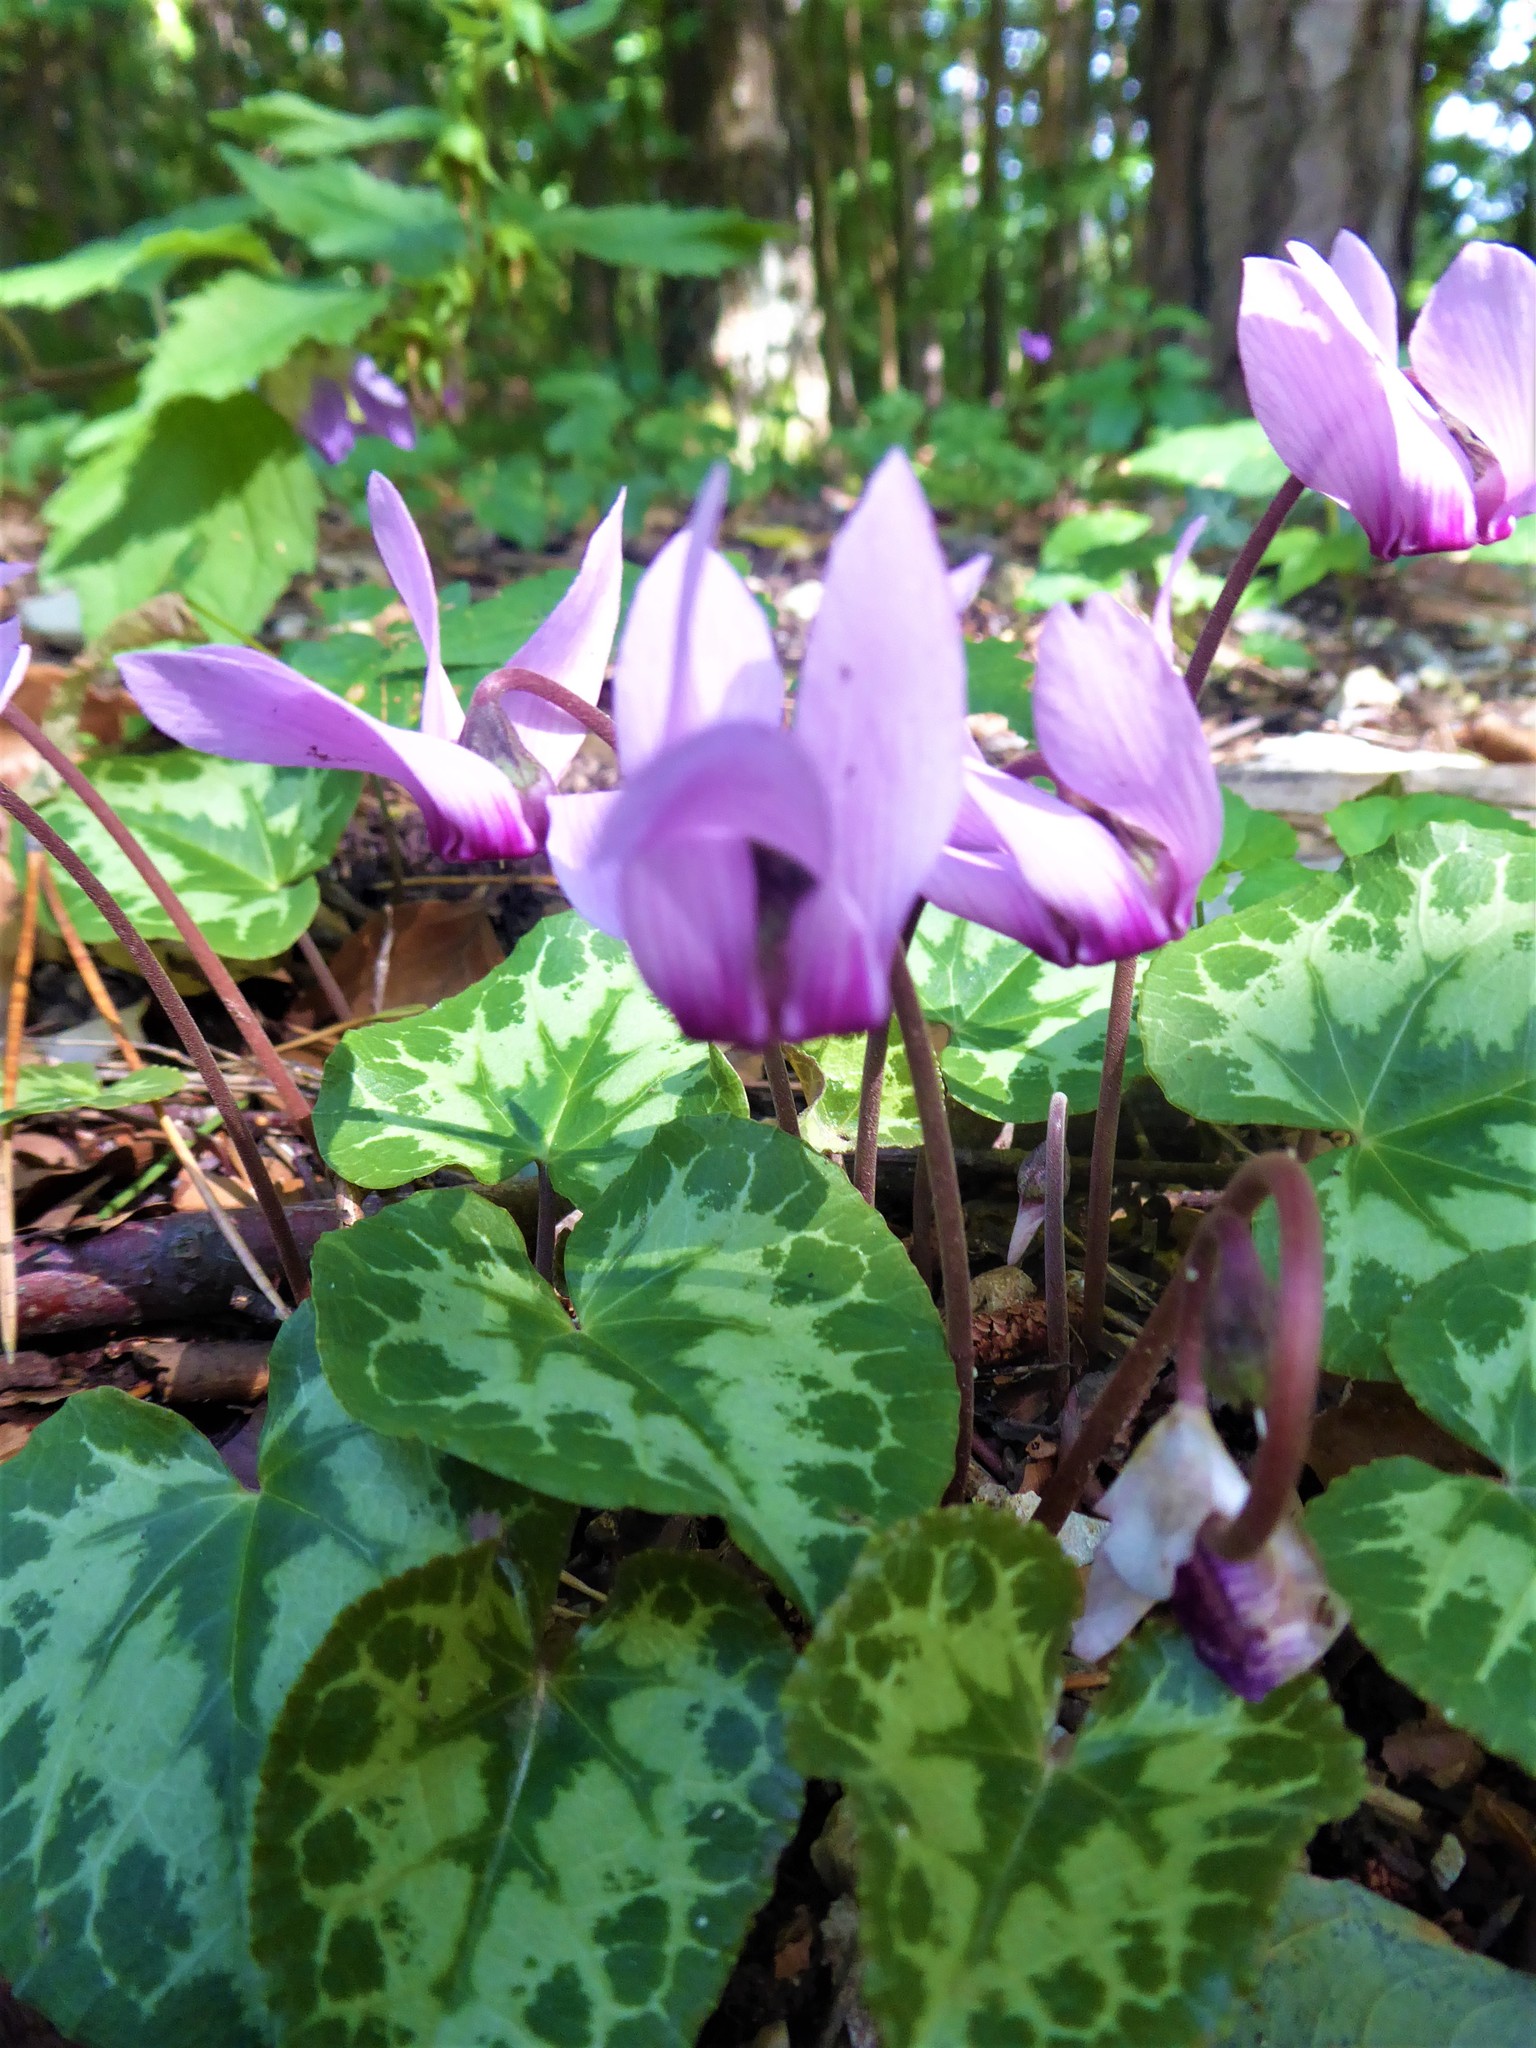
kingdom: Plantae
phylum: Tracheophyta
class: Magnoliopsida
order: Ericales
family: Primulaceae
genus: Cyclamen
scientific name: Cyclamen purpurascens
